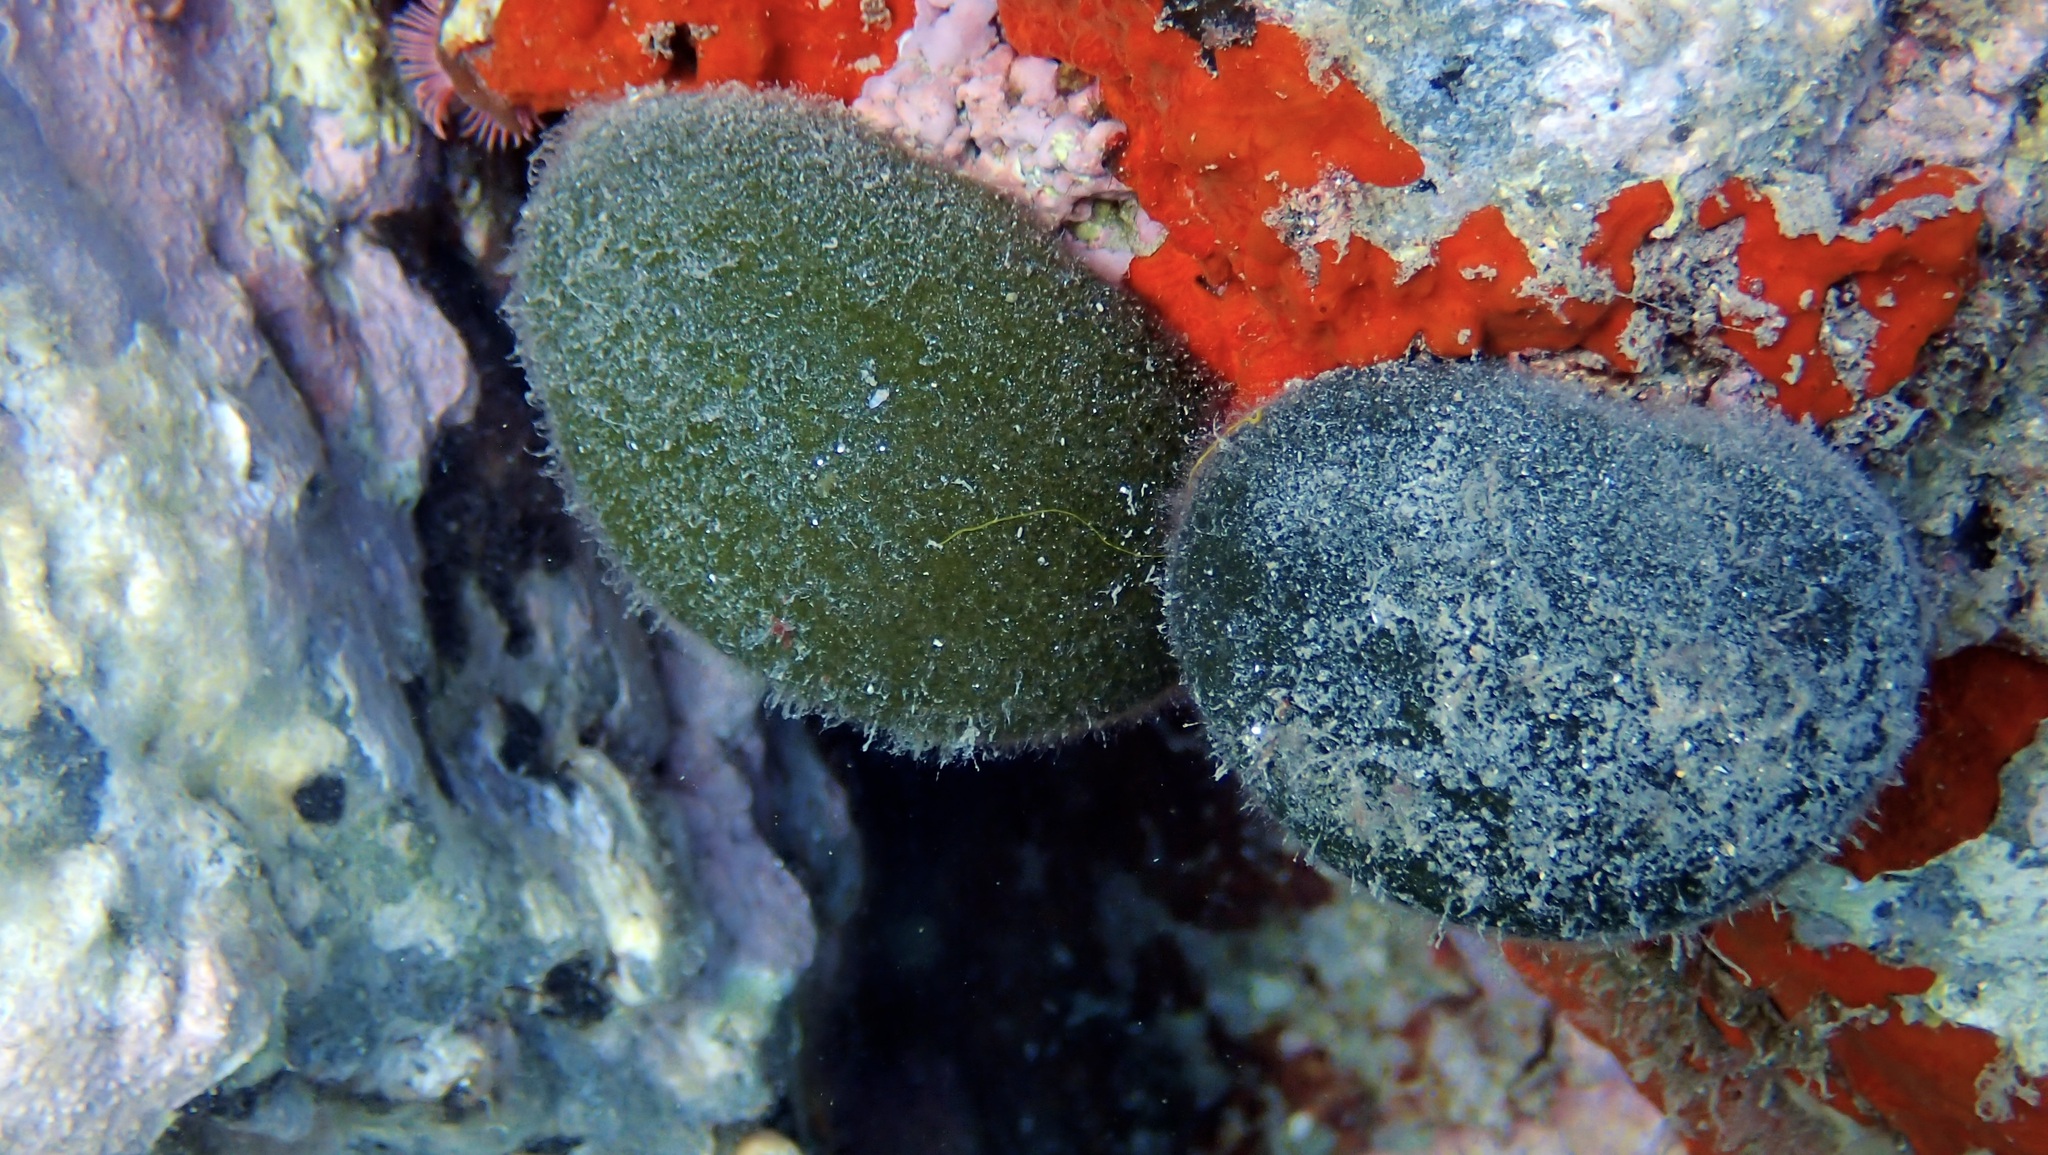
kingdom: Plantae
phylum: Chlorophyta
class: Ulvophyceae
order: Bryopsidales
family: Codiaceae
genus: Codium
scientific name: Codium bursa
